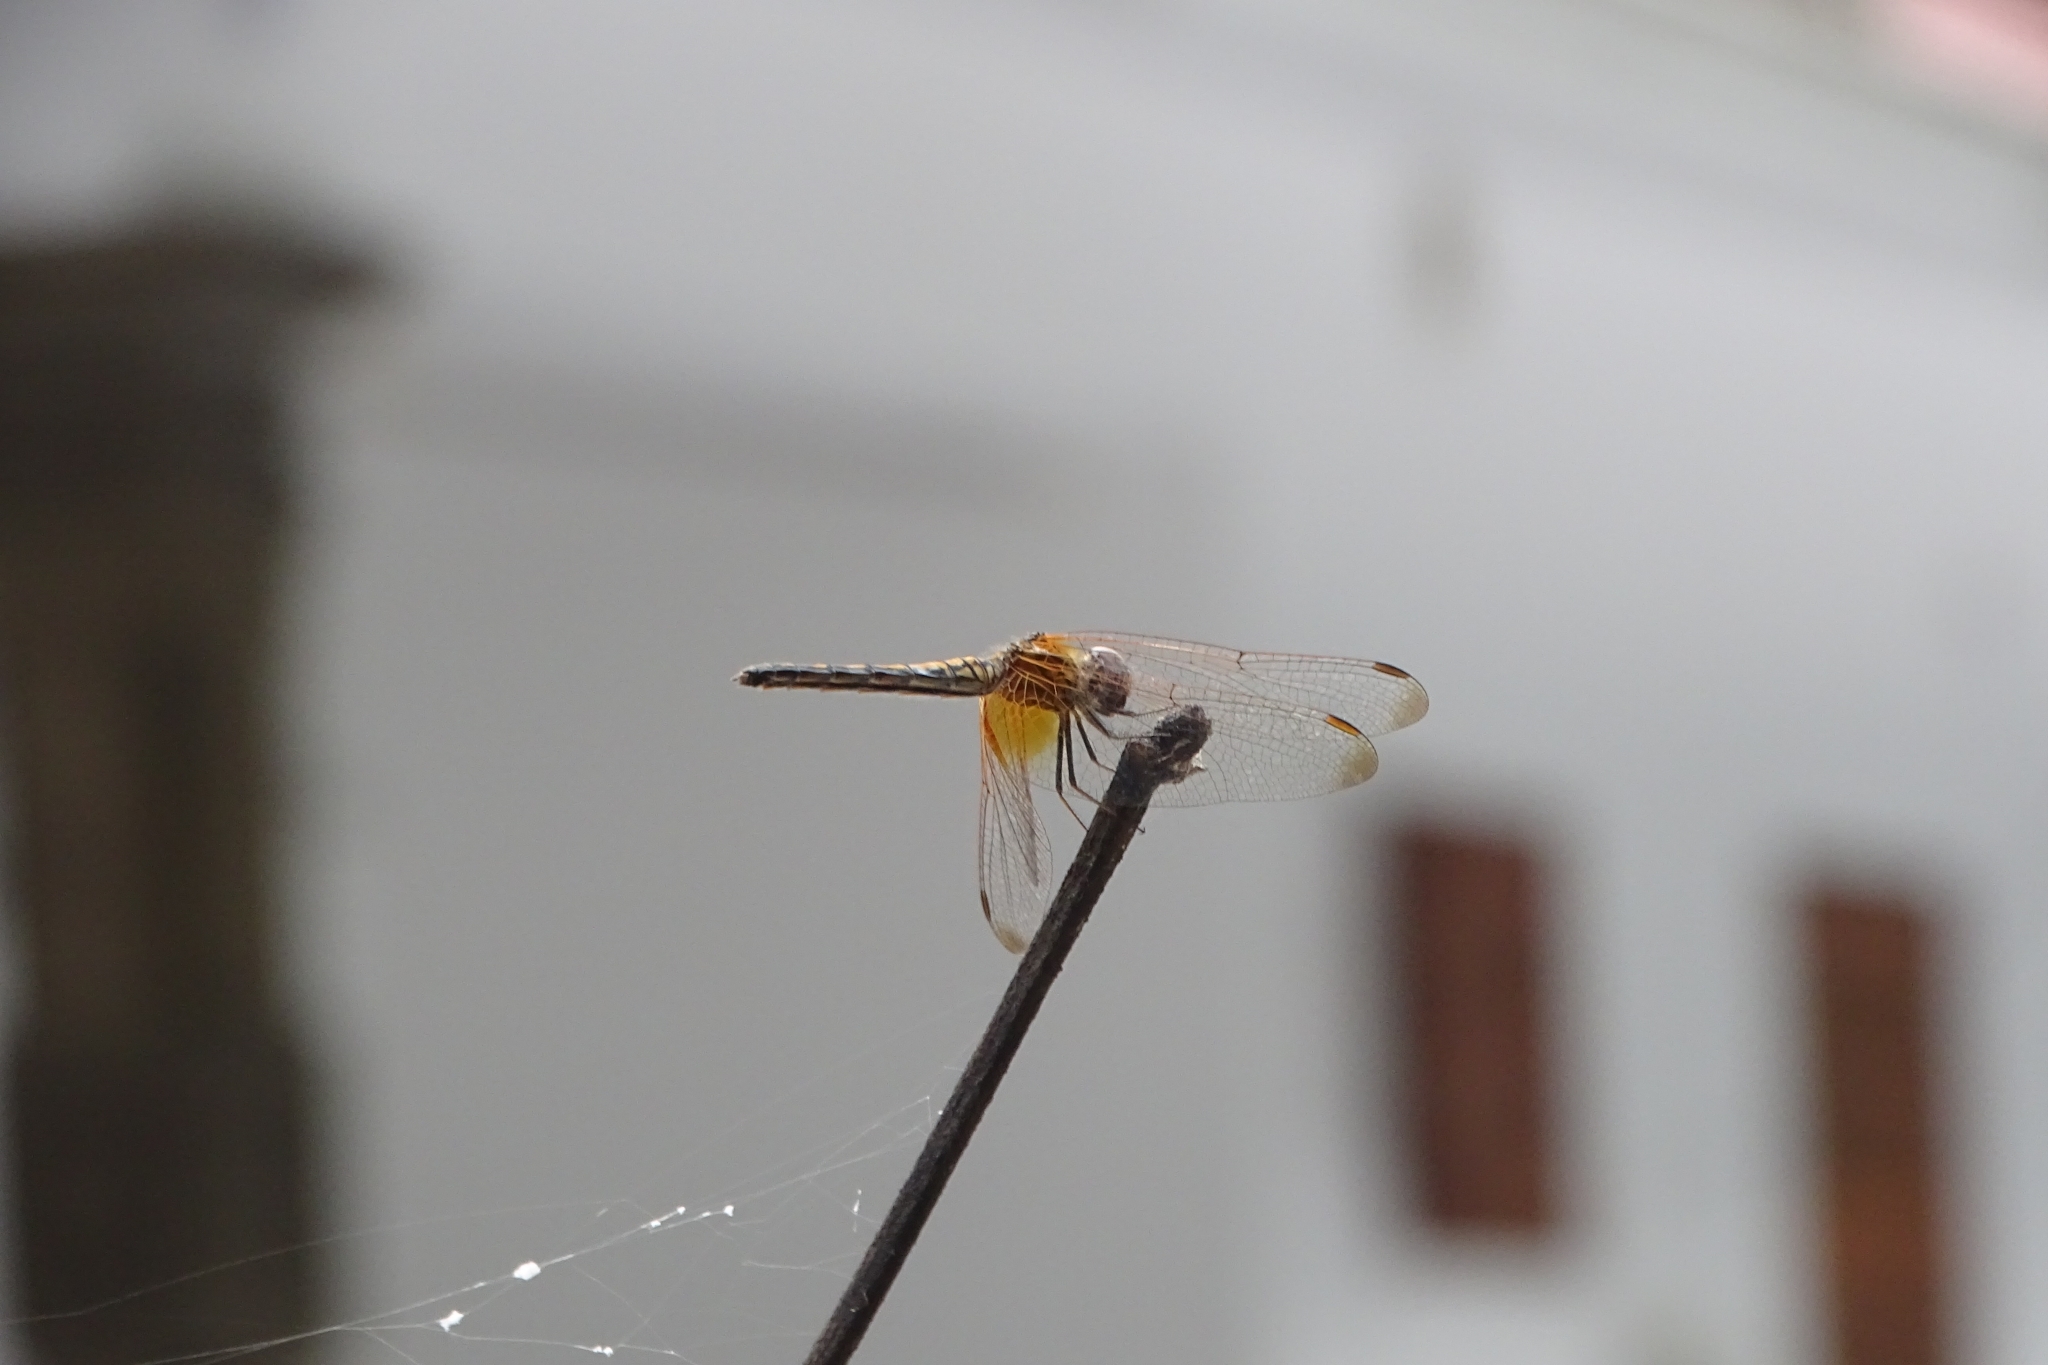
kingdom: Animalia
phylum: Arthropoda
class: Insecta
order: Odonata
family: Libellulidae
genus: Trithemis
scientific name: Trithemis aurora
